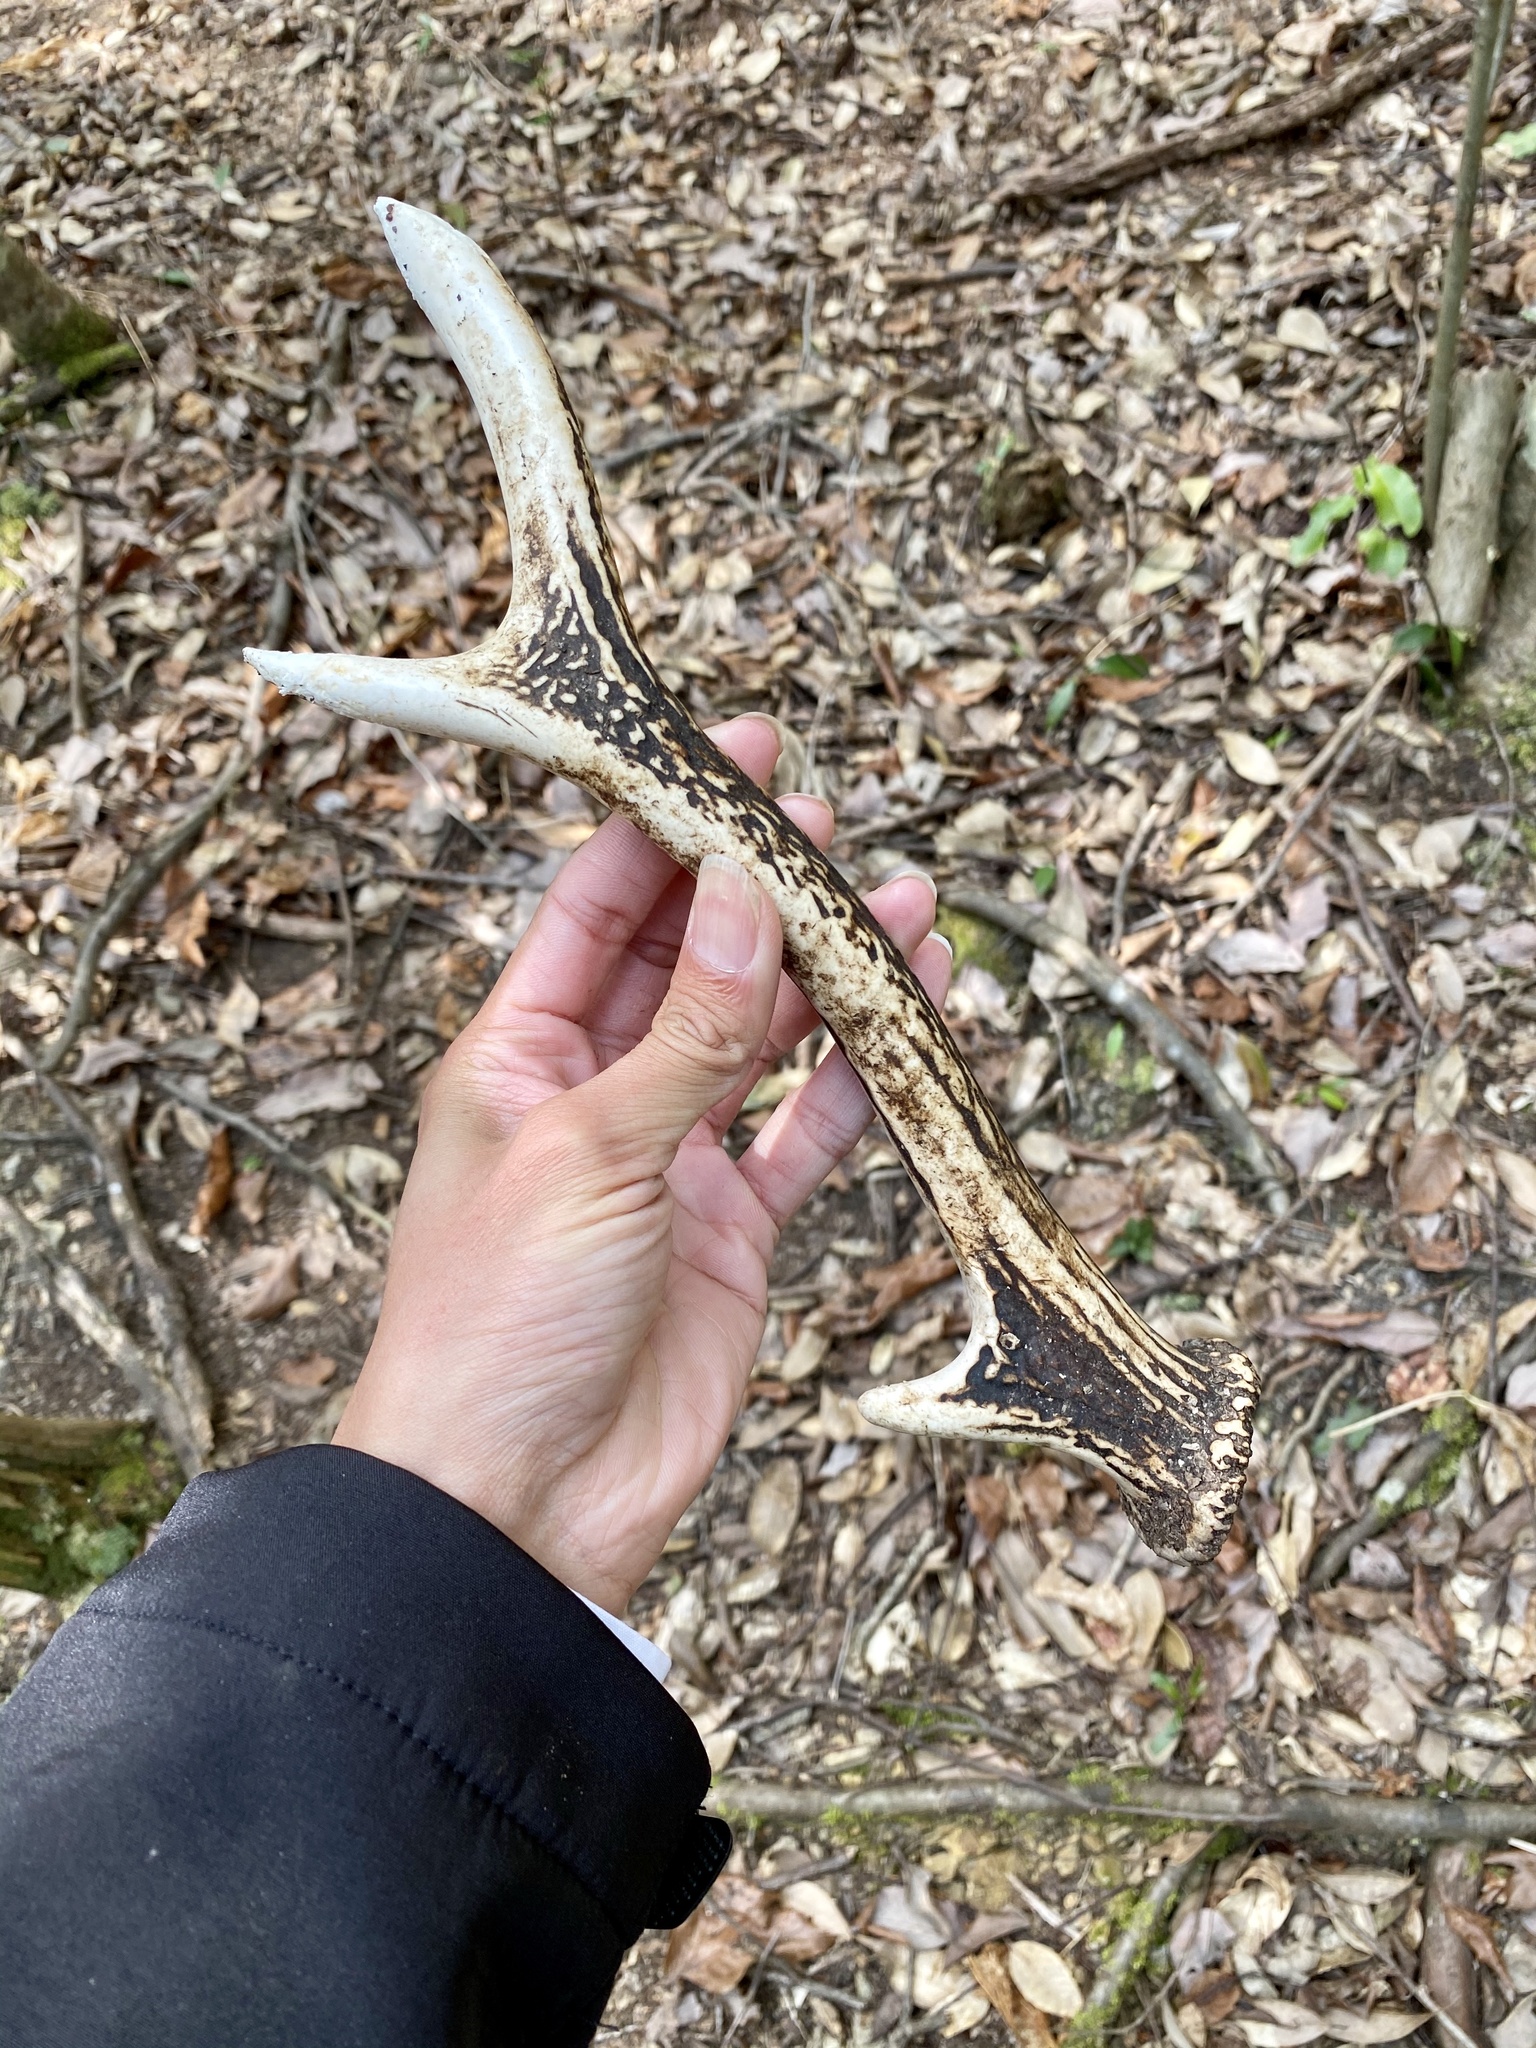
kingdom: Animalia
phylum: Chordata
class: Mammalia
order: Artiodactyla
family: Cervidae
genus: Cervus
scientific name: Cervus nippon
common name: Sika deer
